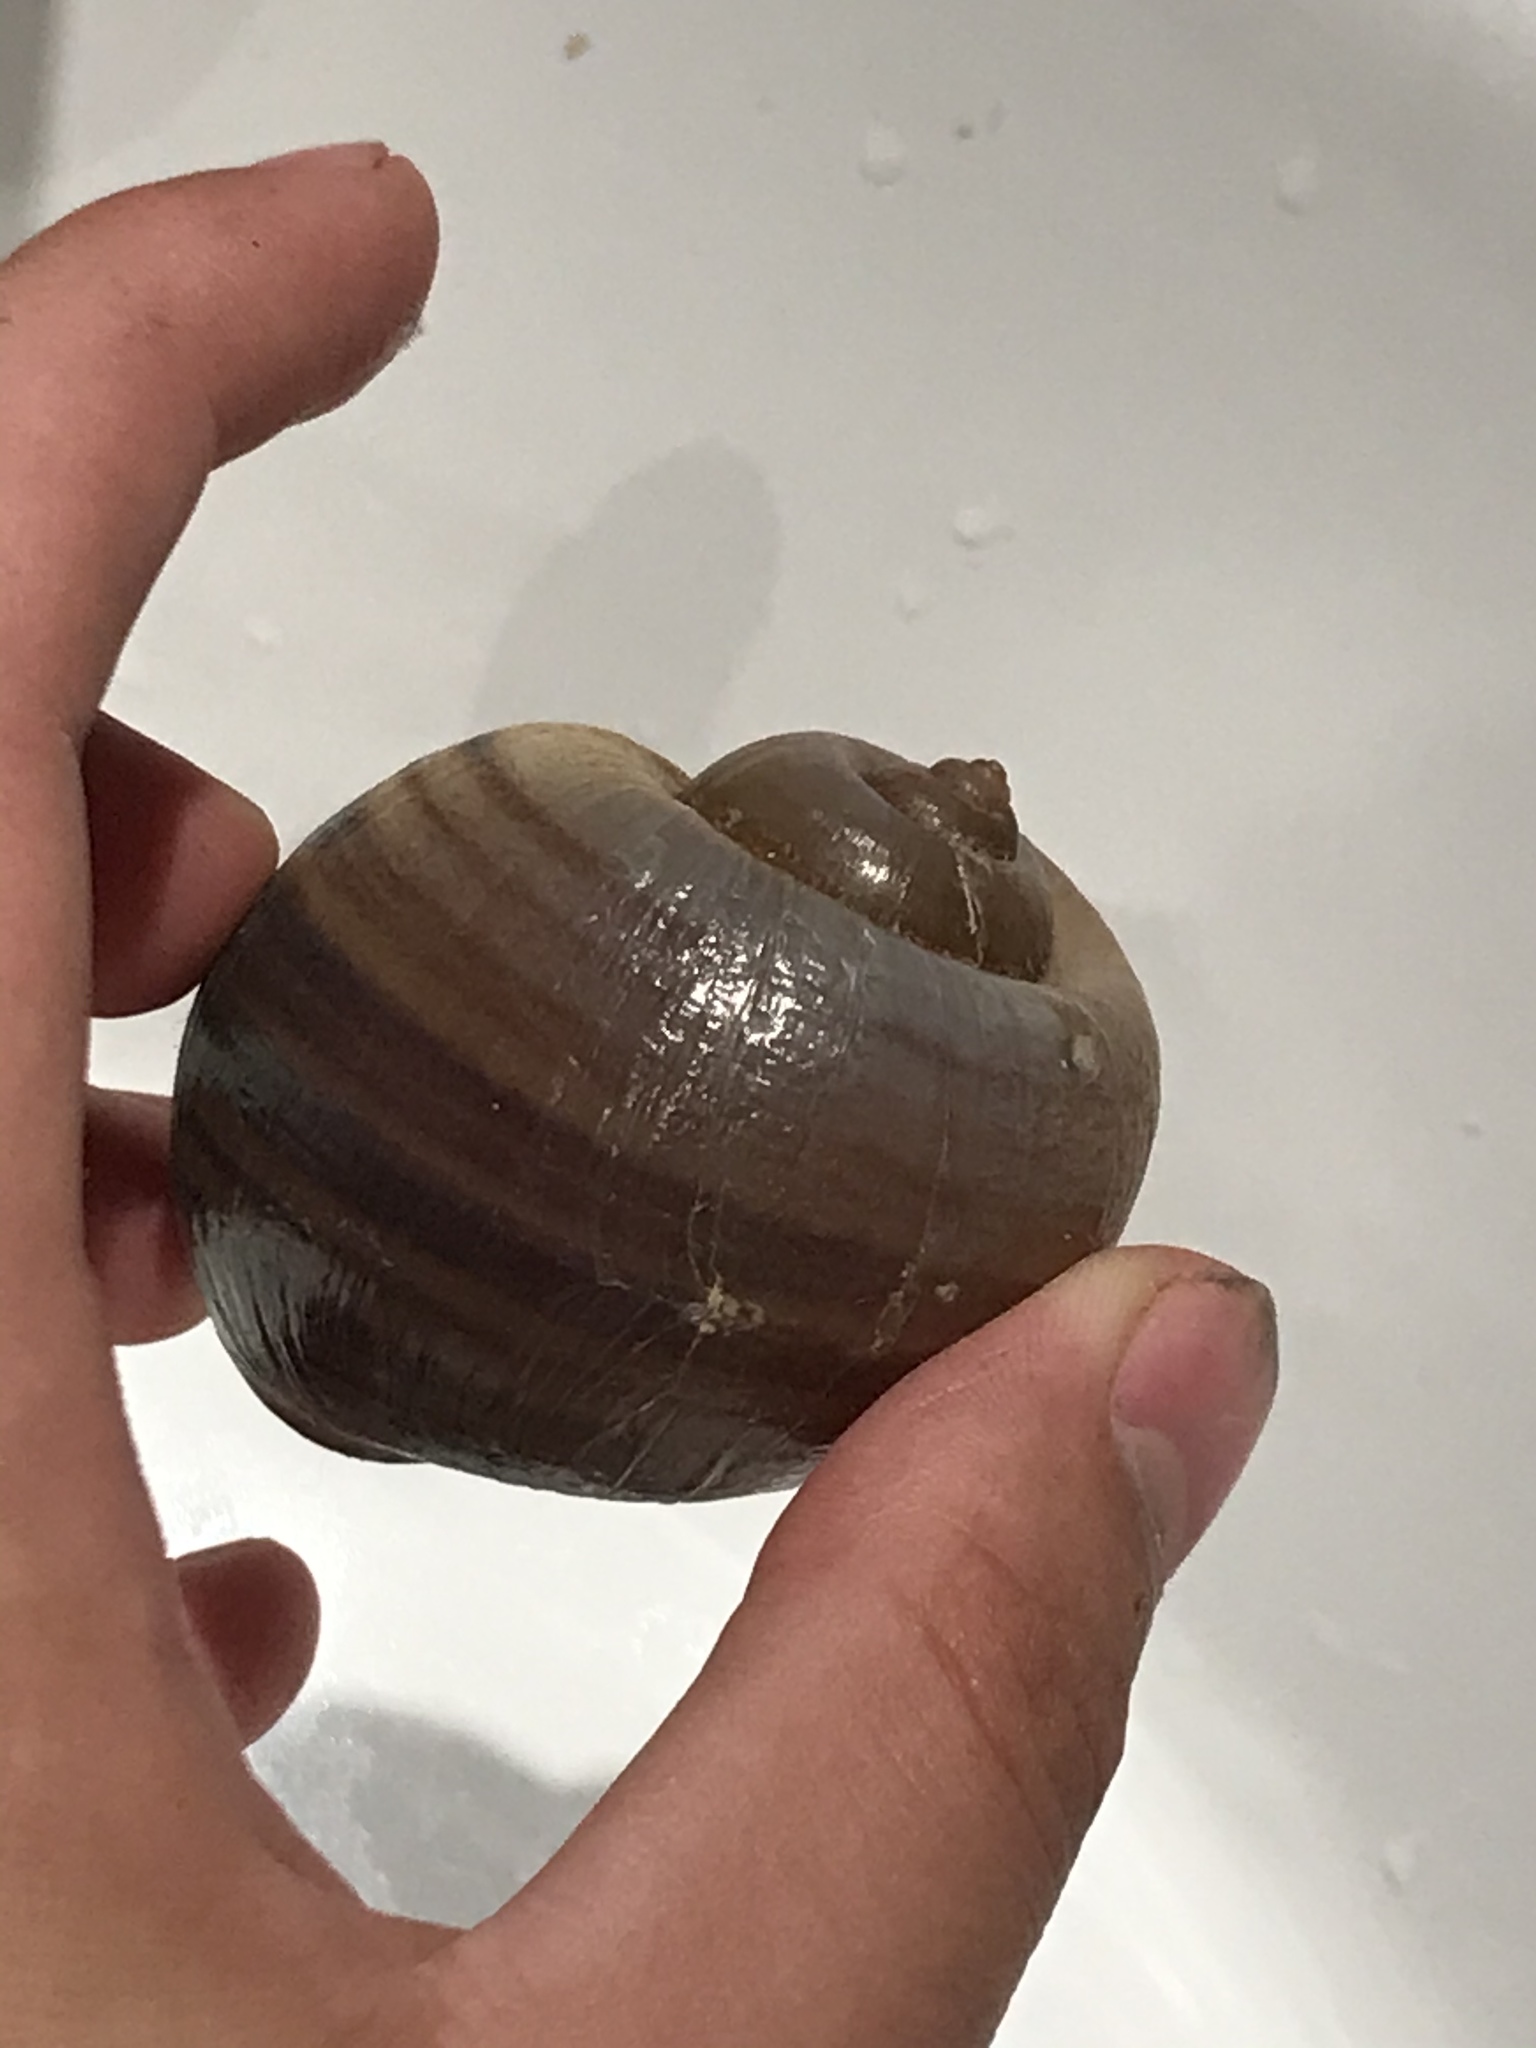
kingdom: Animalia
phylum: Mollusca
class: Gastropoda
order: Architaenioglossa
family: Ampullariidae
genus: Pomacea
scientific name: Pomacea canaliculata
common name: Channeled applesnail
